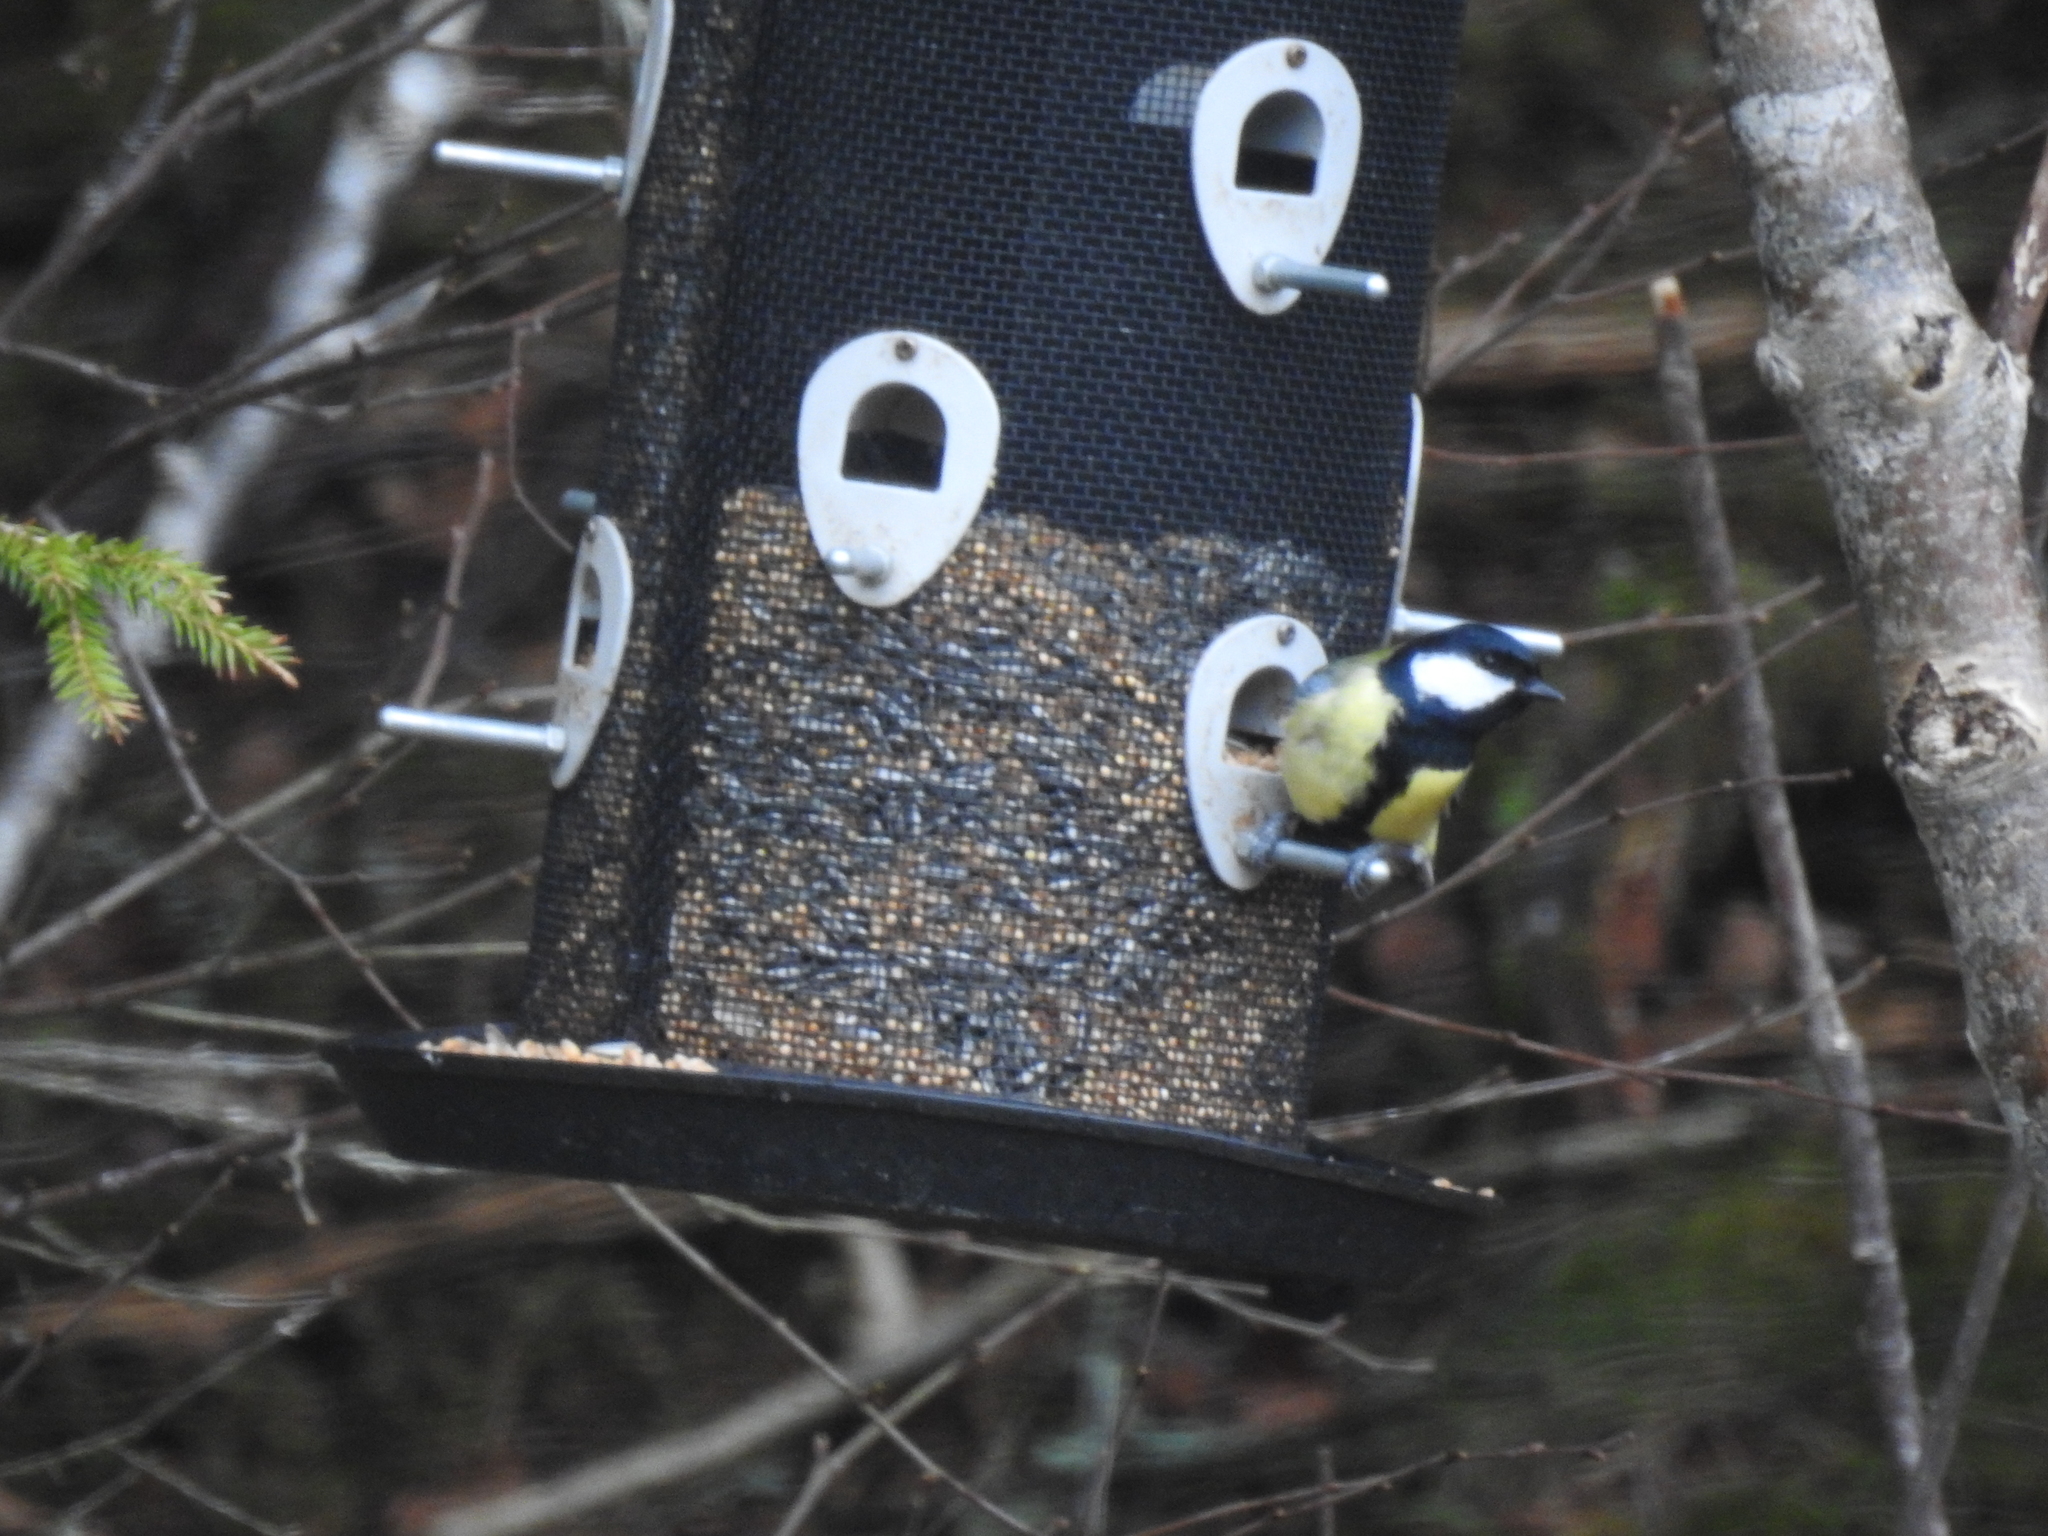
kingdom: Animalia
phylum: Chordata
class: Aves
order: Passeriformes
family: Paridae
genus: Parus
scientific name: Parus major
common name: Great tit
